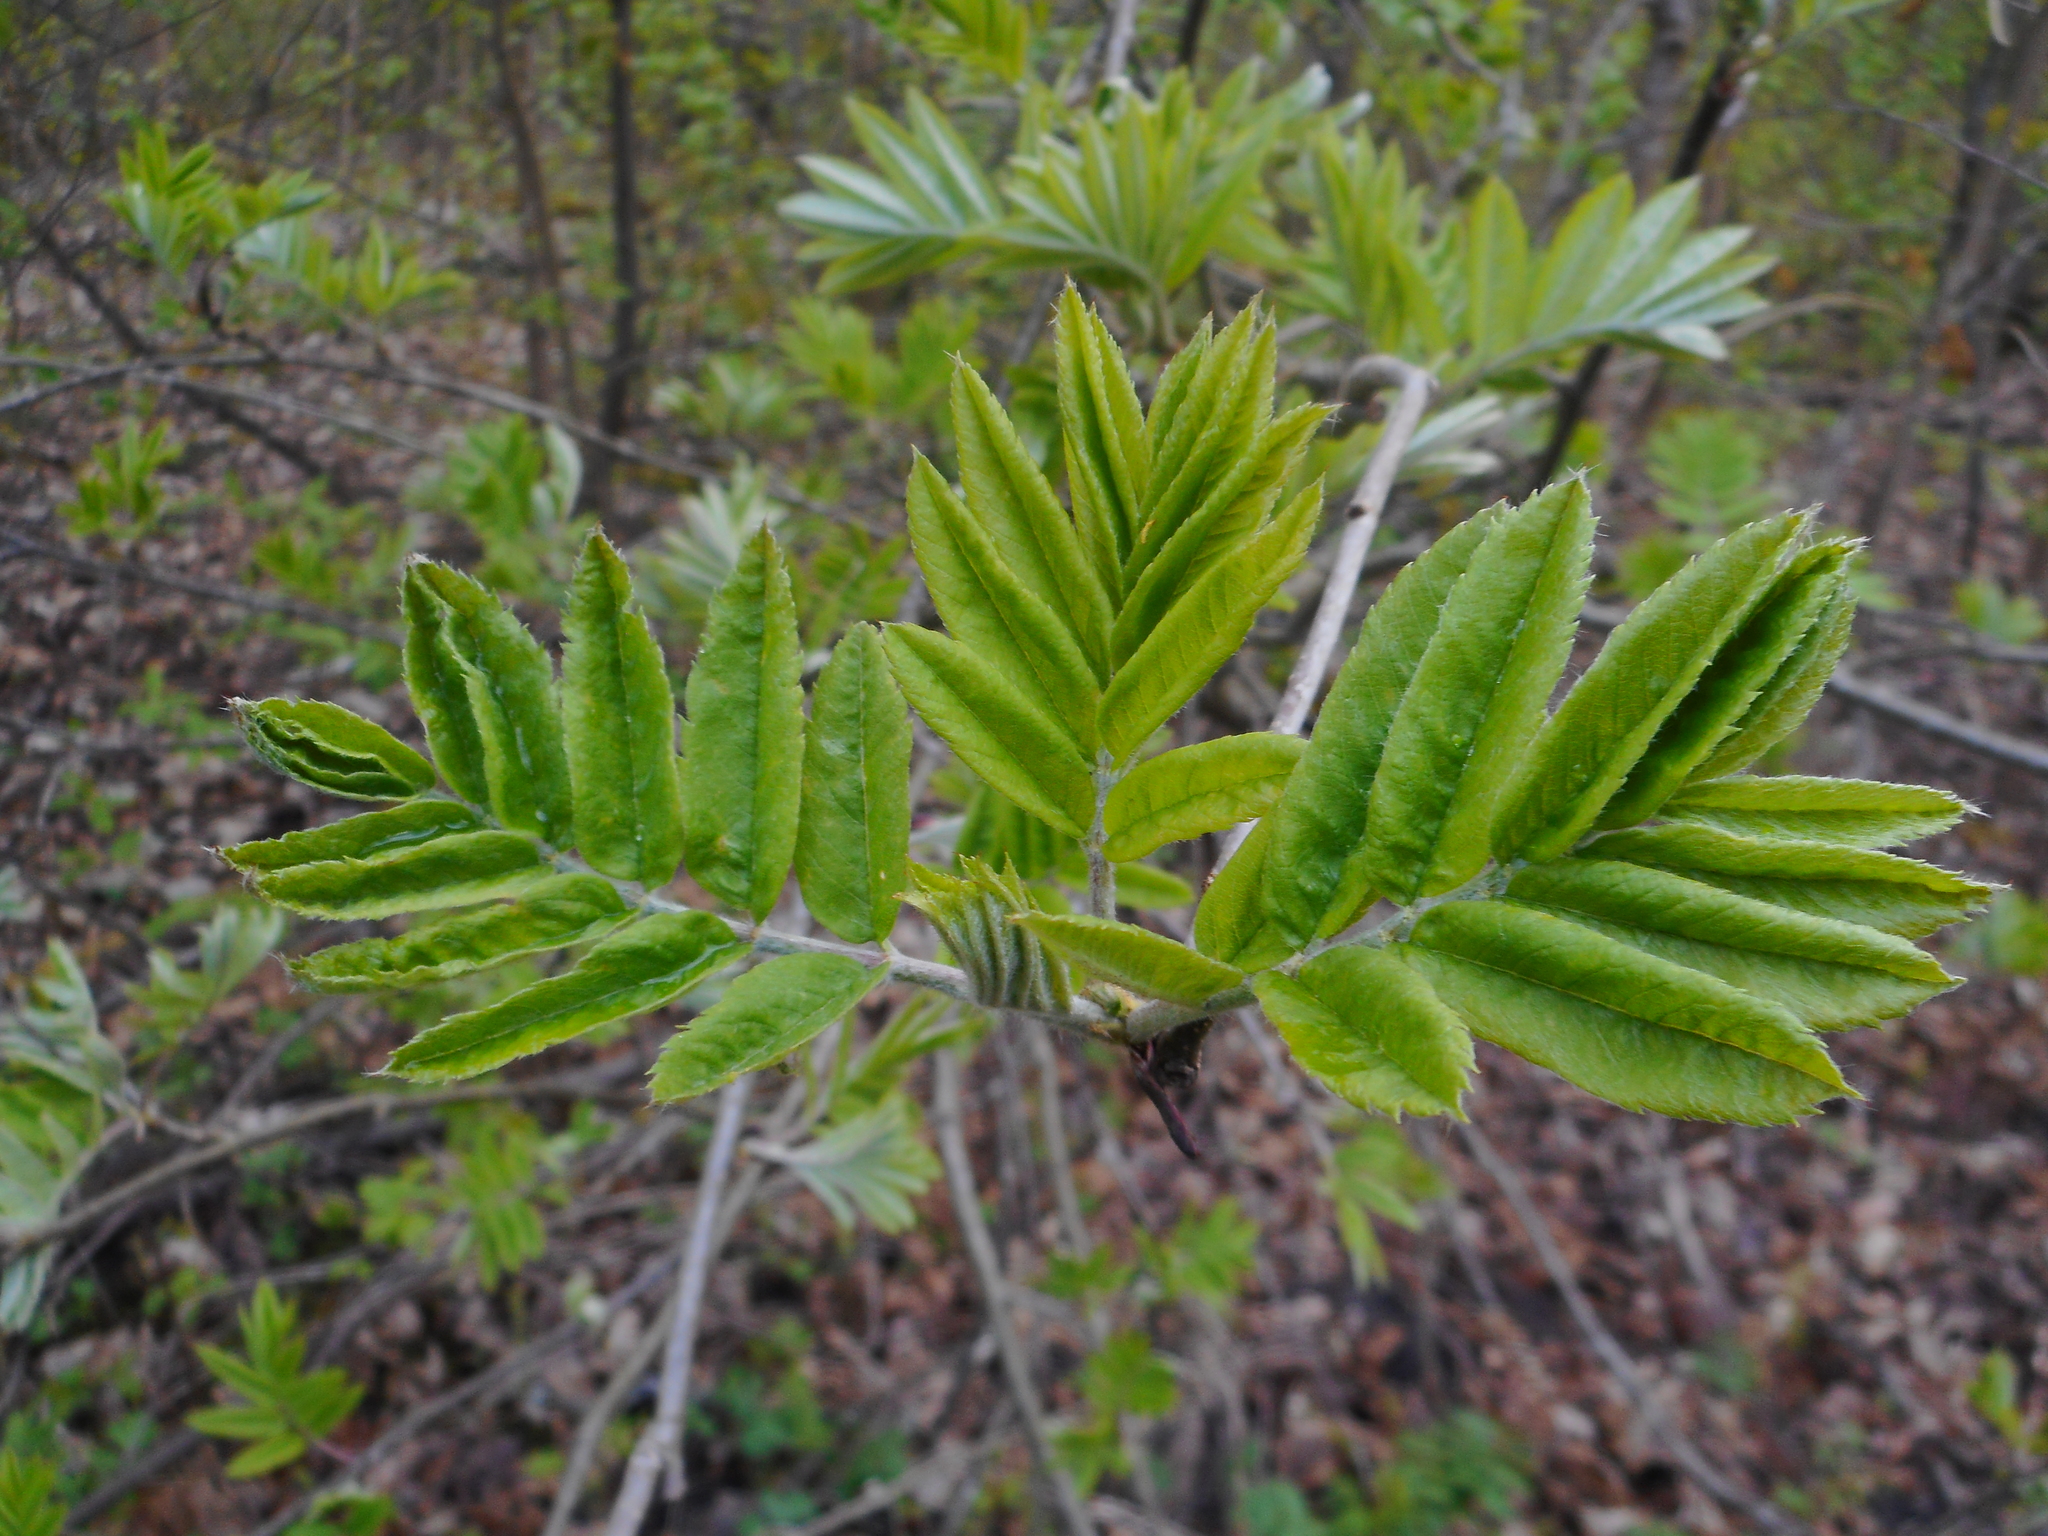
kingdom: Plantae
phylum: Tracheophyta
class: Magnoliopsida
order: Rosales
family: Rosaceae
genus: Sorbus
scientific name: Sorbus aucuparia
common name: Rowan
